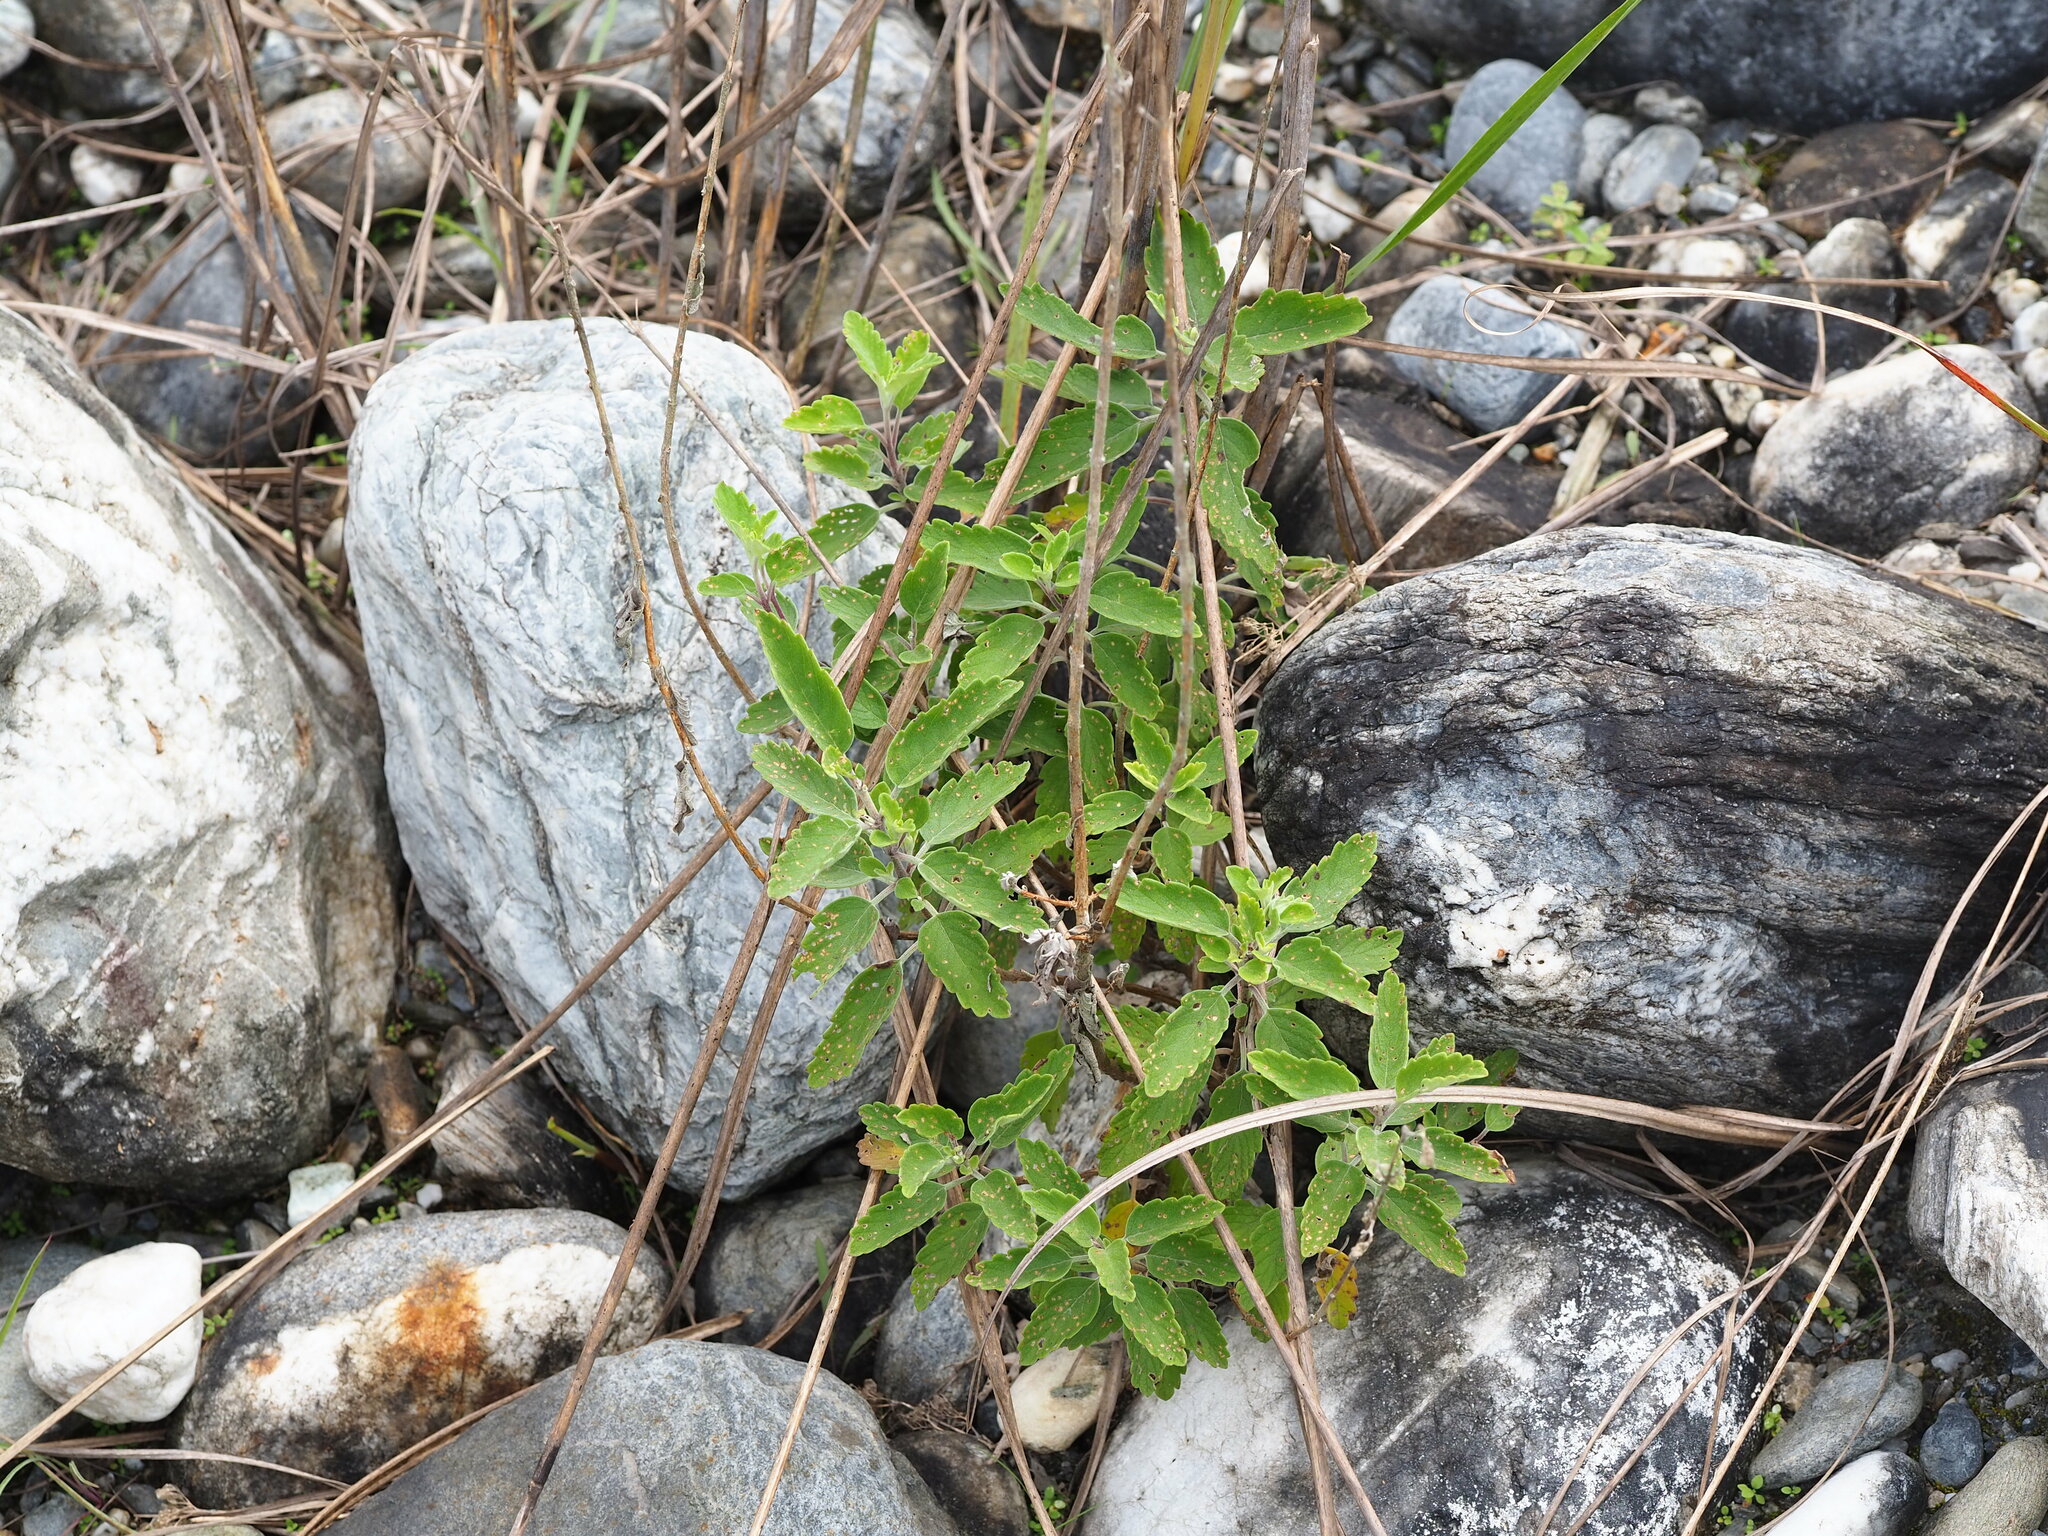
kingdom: Plantae
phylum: Tracheophyta
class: Magnoliopsida
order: Lamiales
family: Lamiaceae
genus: Caryopteris
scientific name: Caryopteris incana
